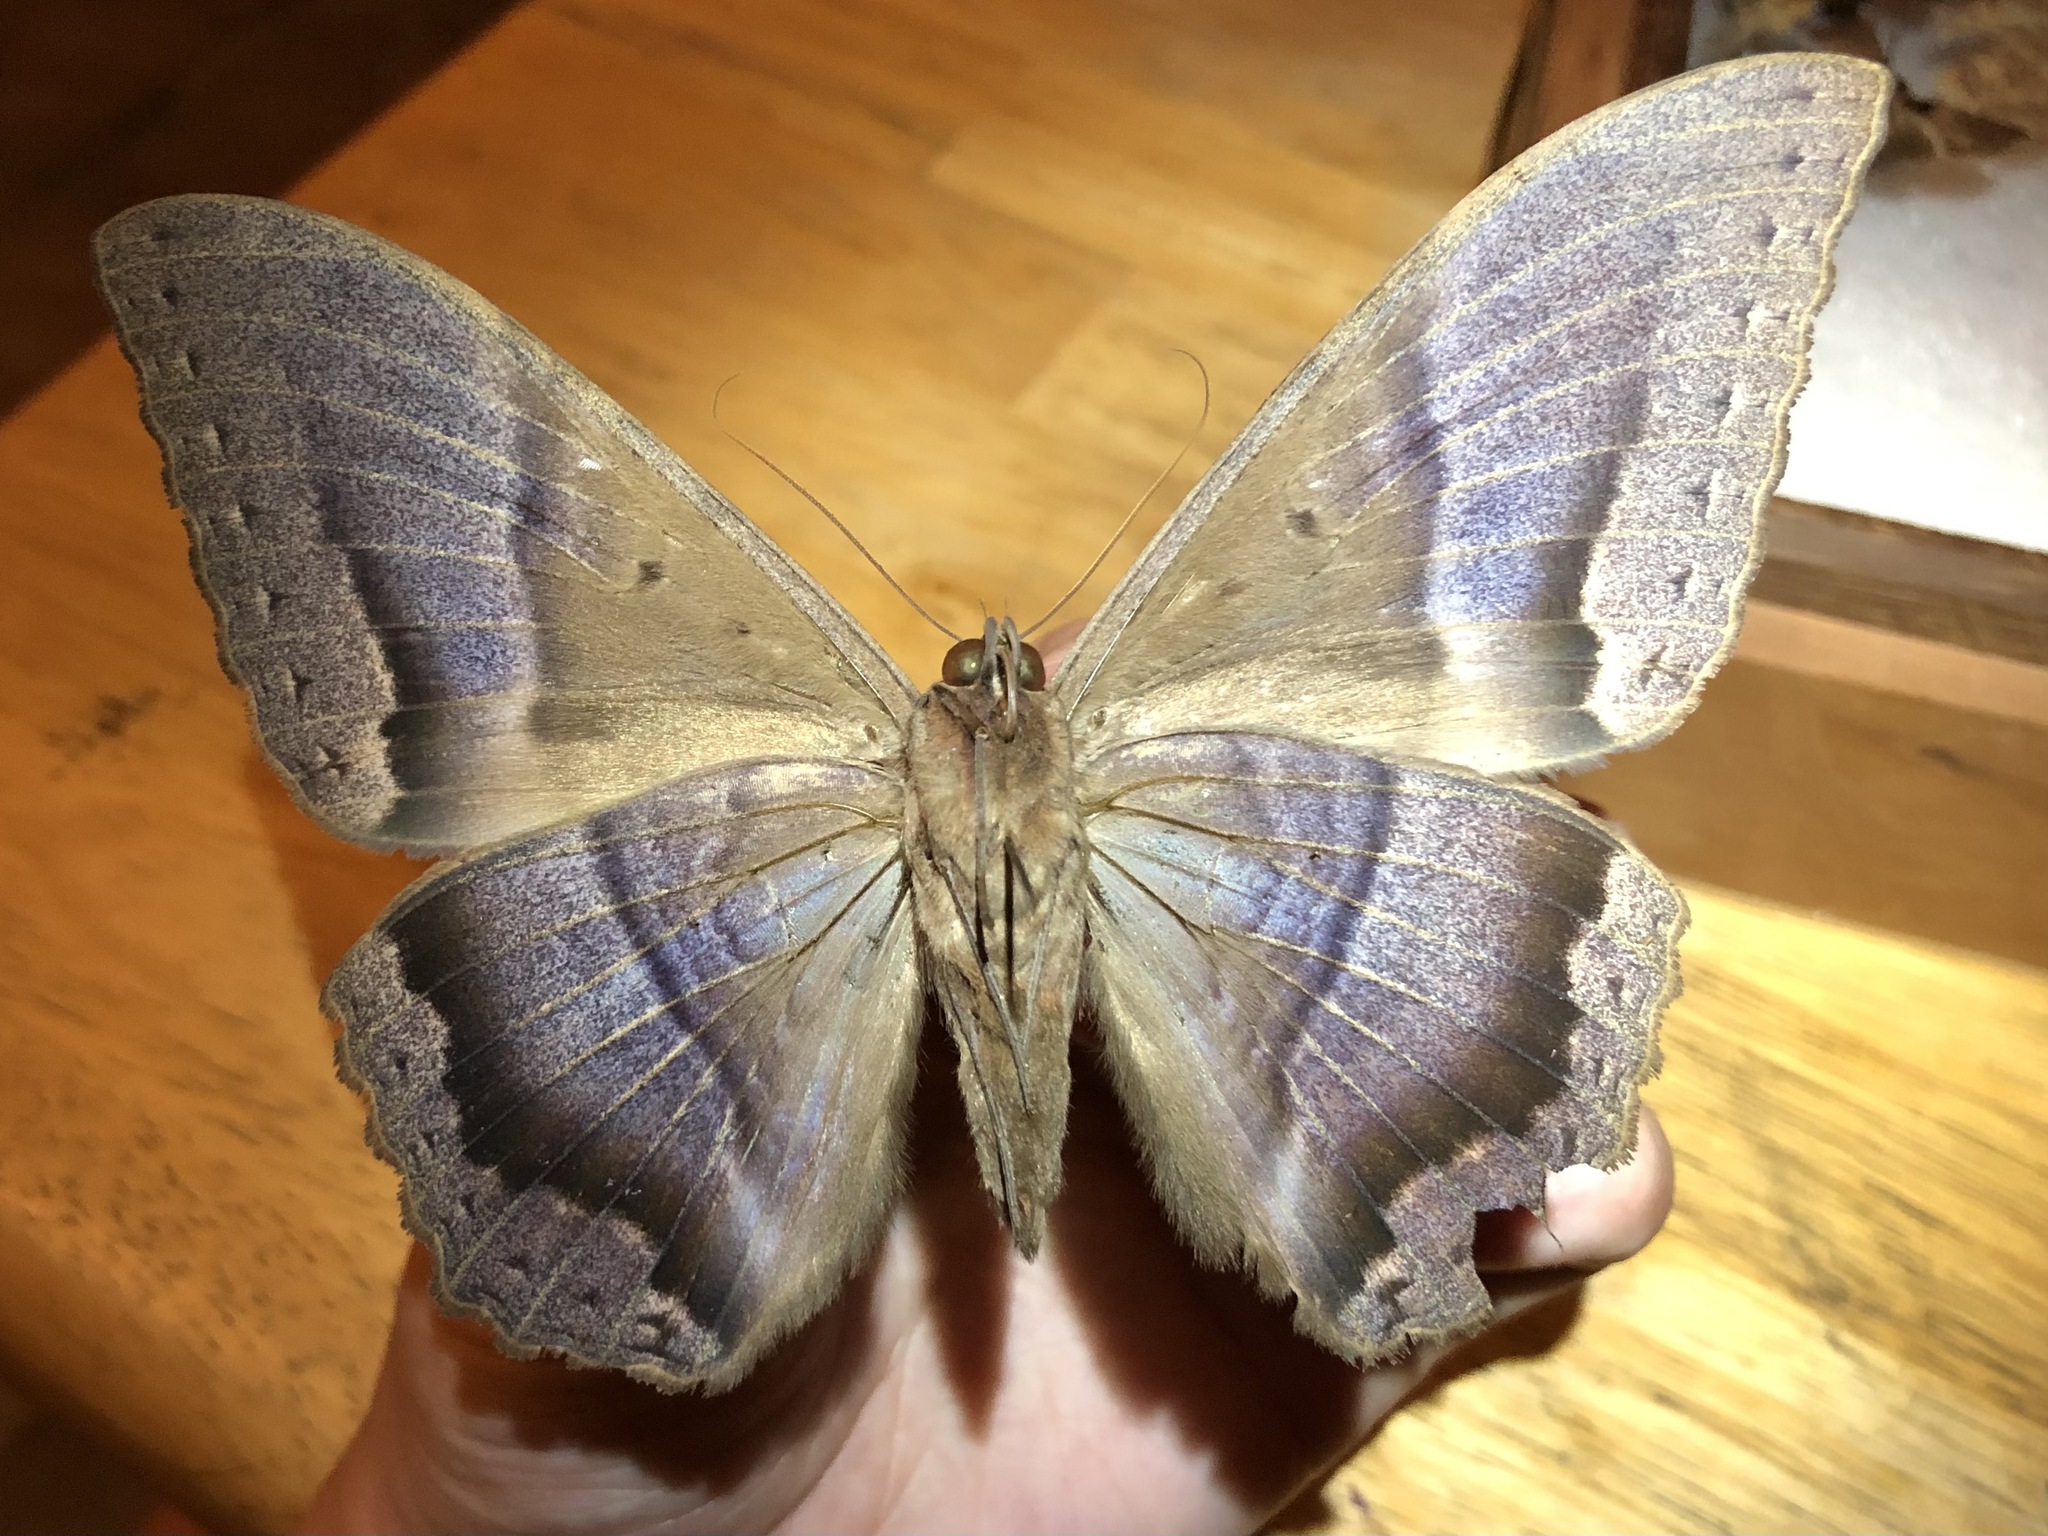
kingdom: Animalia
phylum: Arthropoda
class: Insecta
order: Lepidoptera
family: Erebidae
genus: Ascalapha
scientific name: Ascalapha odorata
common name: Black witch
